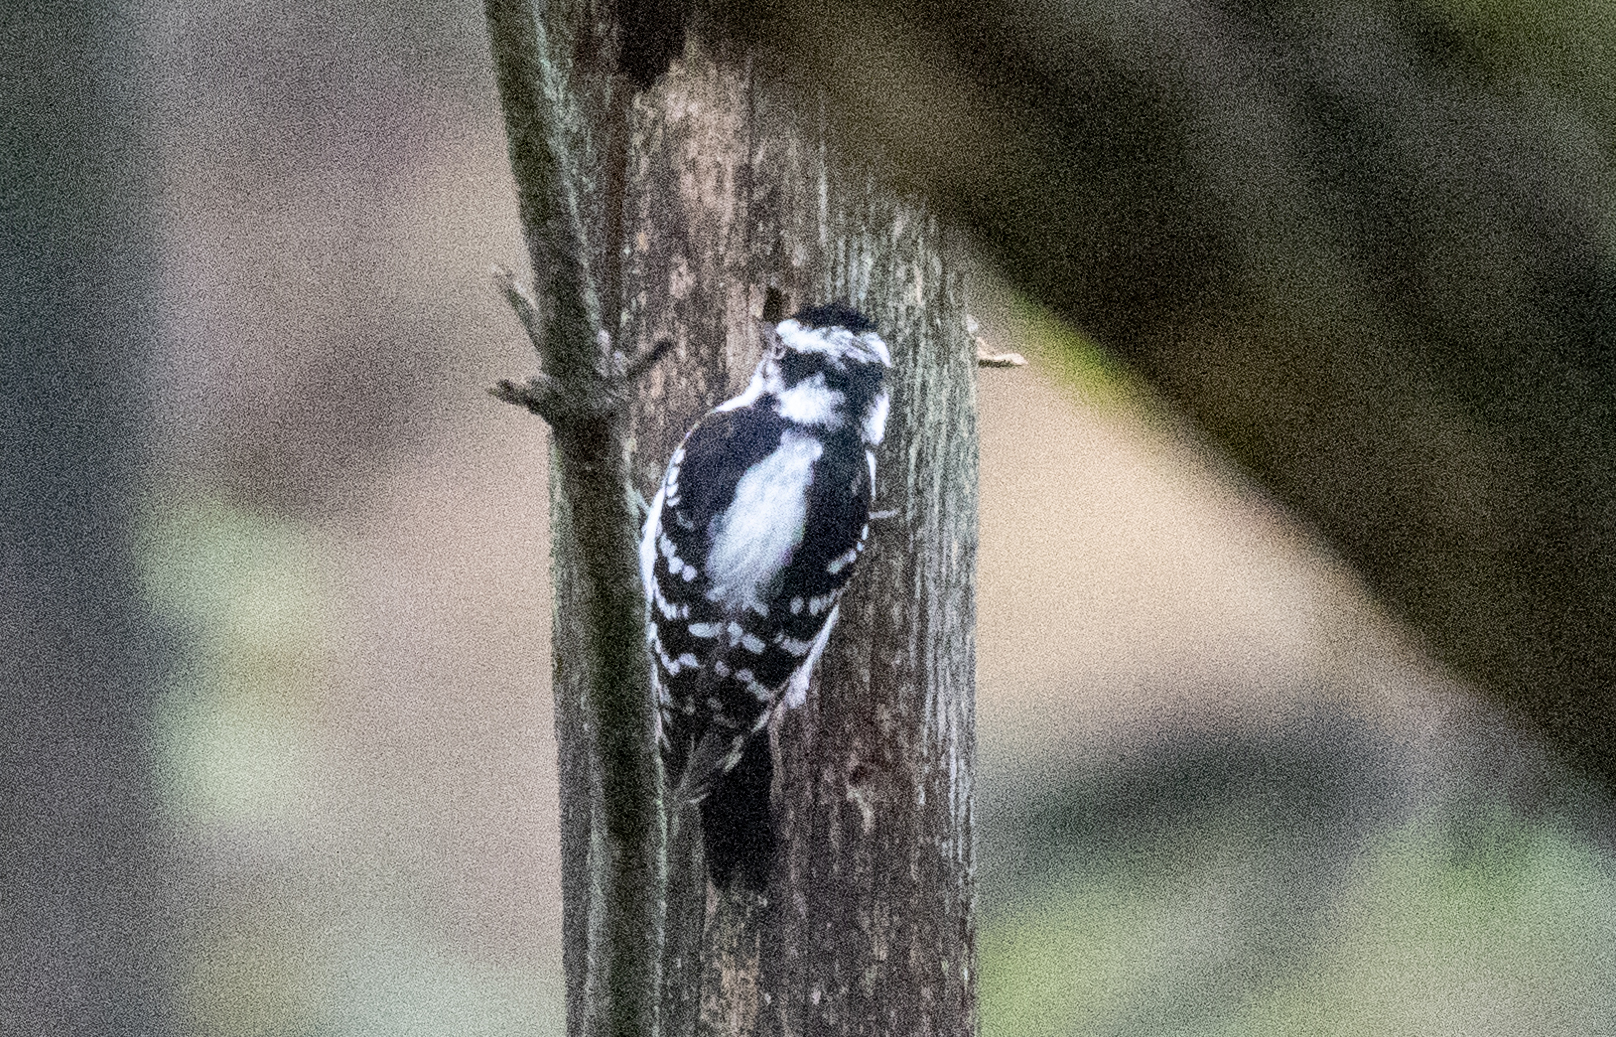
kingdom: Animalia
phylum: Chordata
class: Aves
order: Piciformes
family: Picidae
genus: Dryobates
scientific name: Dryobates pubescens
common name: Downy woodpecker
